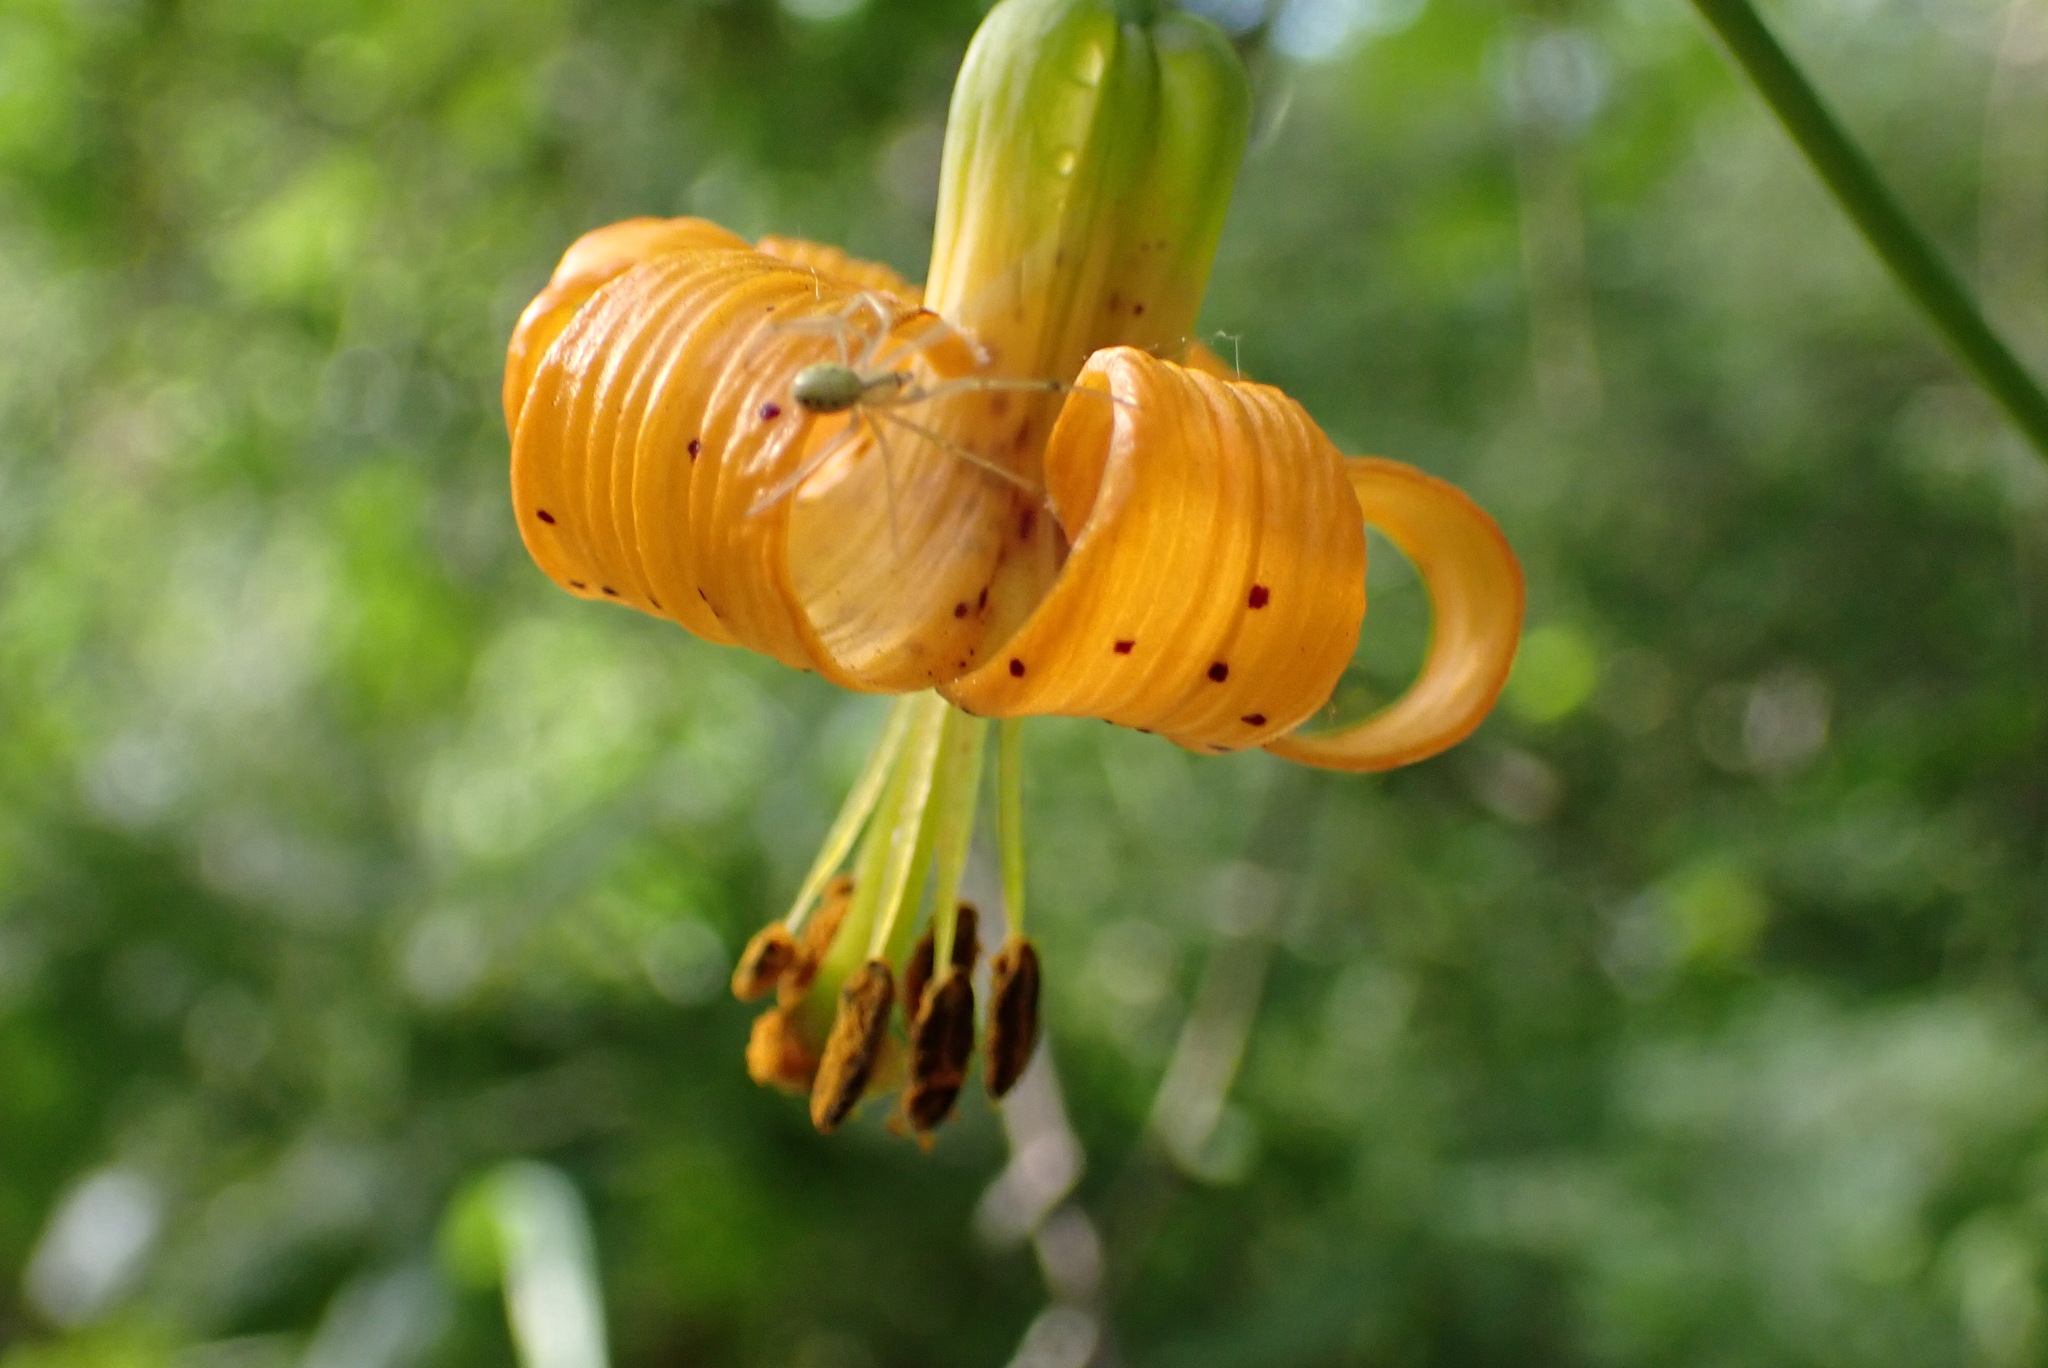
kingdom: Plantae
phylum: Tracheophyta
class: Liliopsida
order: Liliales
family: Liliaceae
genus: Lilium
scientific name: Lilium columbianum
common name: Columbia lily
